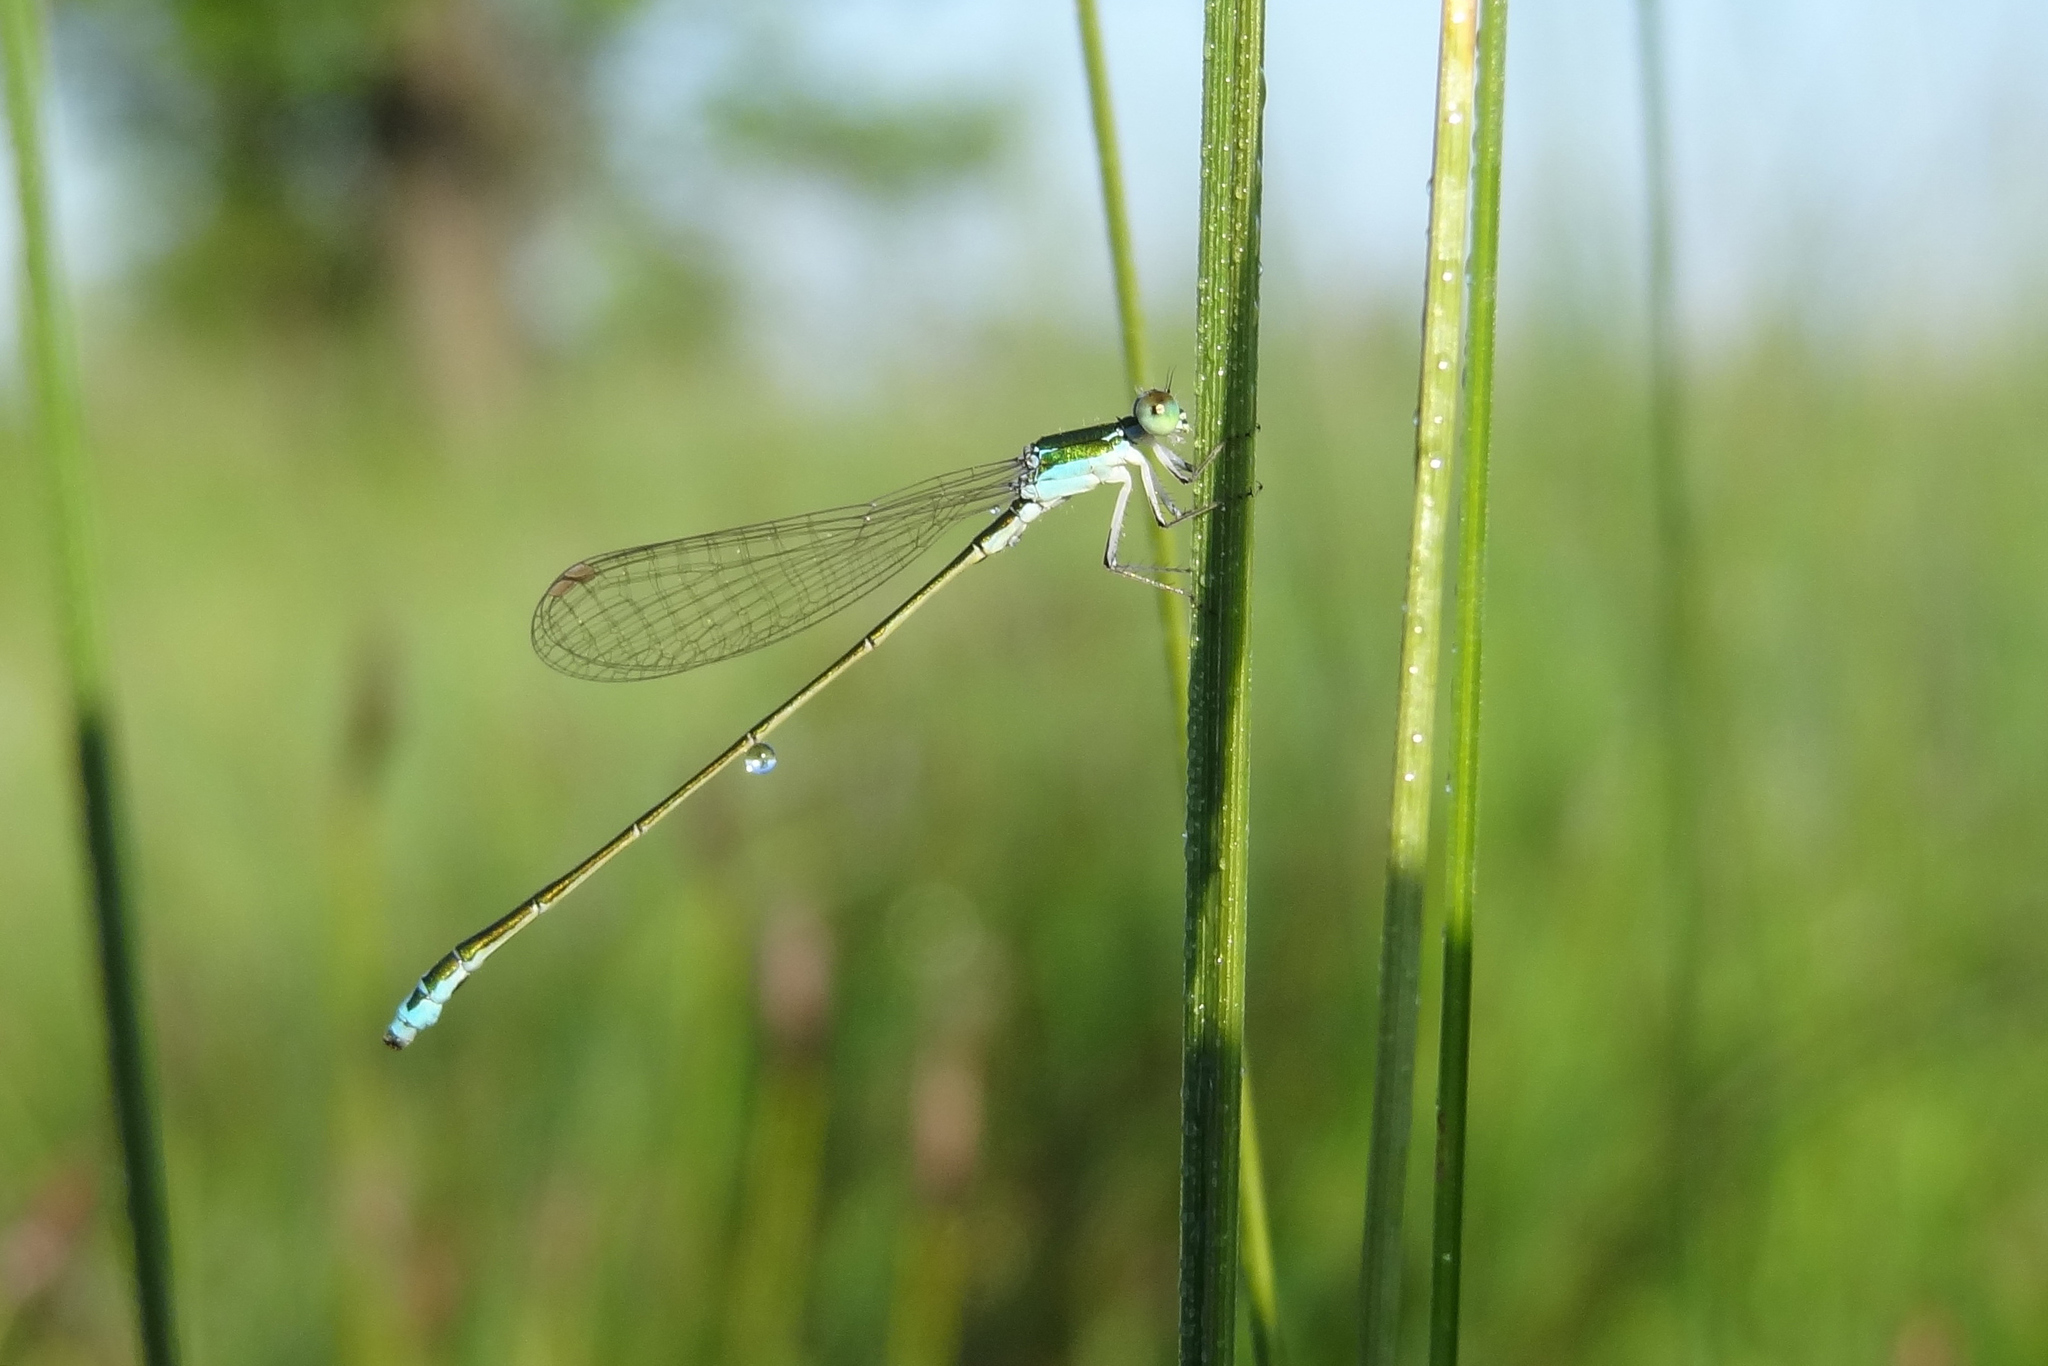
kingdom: Animalia
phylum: Arthropoda
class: Insecta
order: Odonata
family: Coenagrionidae
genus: Nehalennia
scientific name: Nehalennia speciosa
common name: Sedgling
